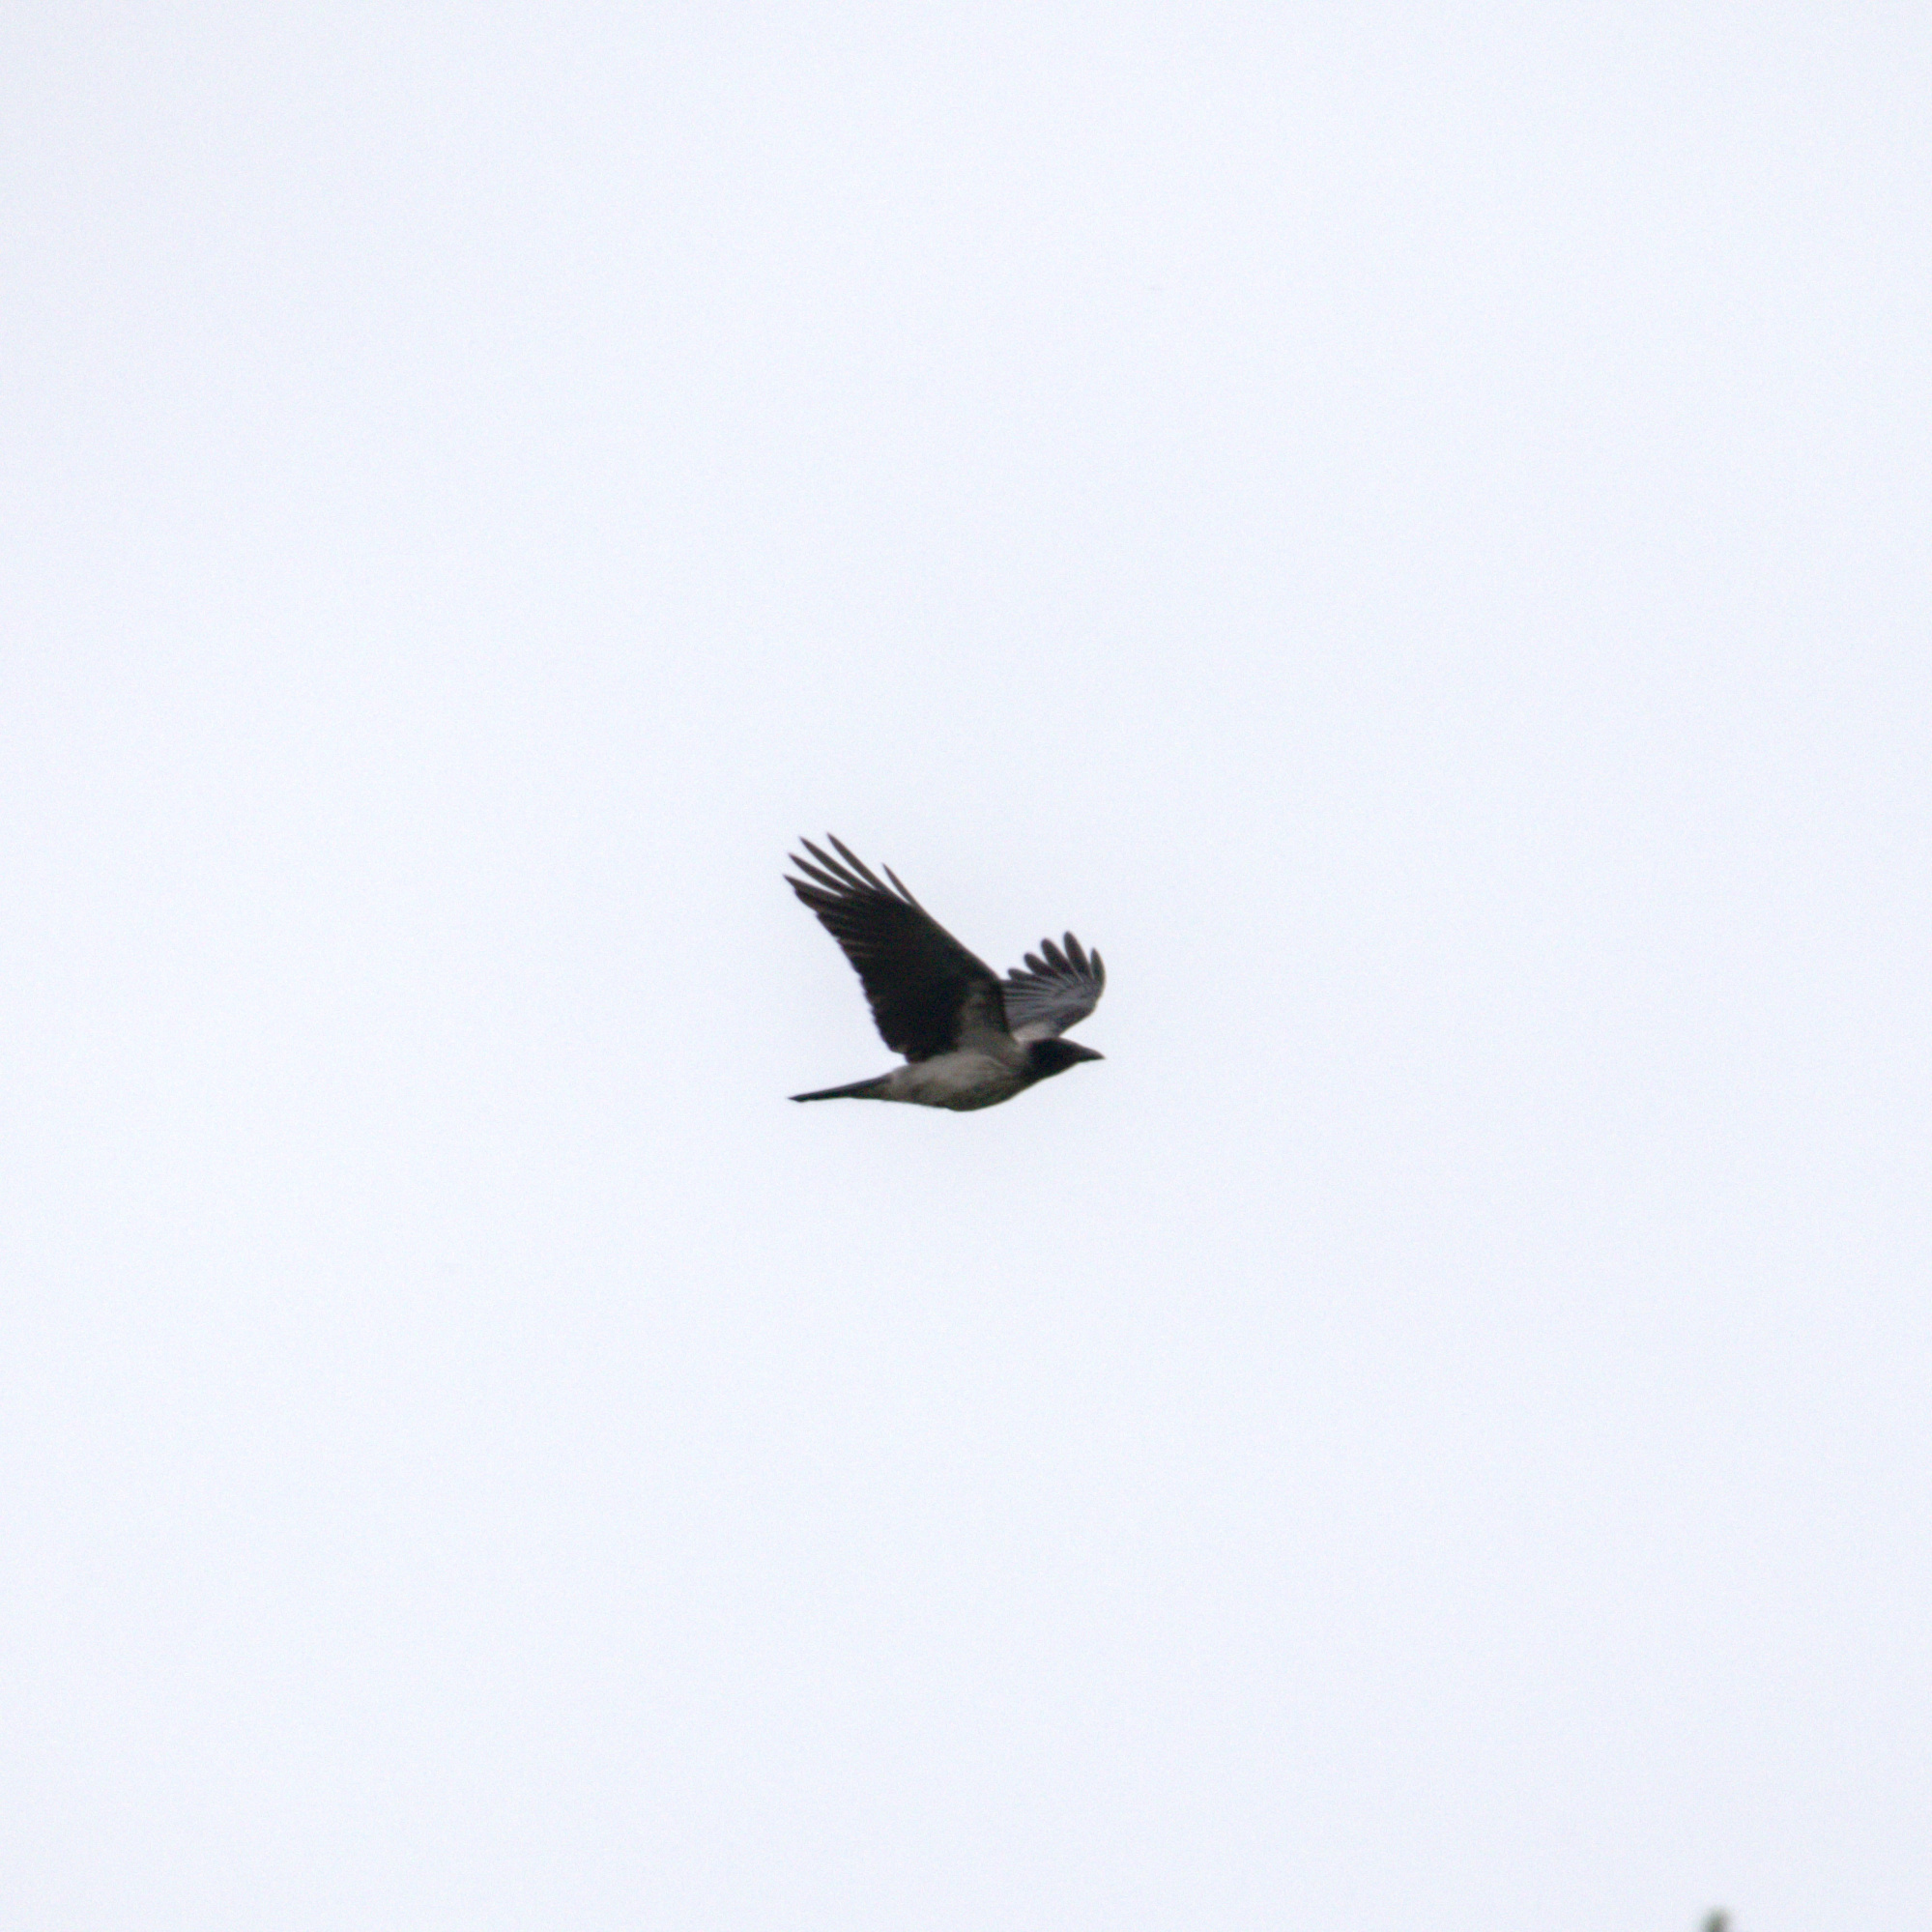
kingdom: Animalia
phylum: Chordata
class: Aves
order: Passeriformes
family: Corvidae
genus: Corvus
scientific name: Corvus cornix
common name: Hooded crow
